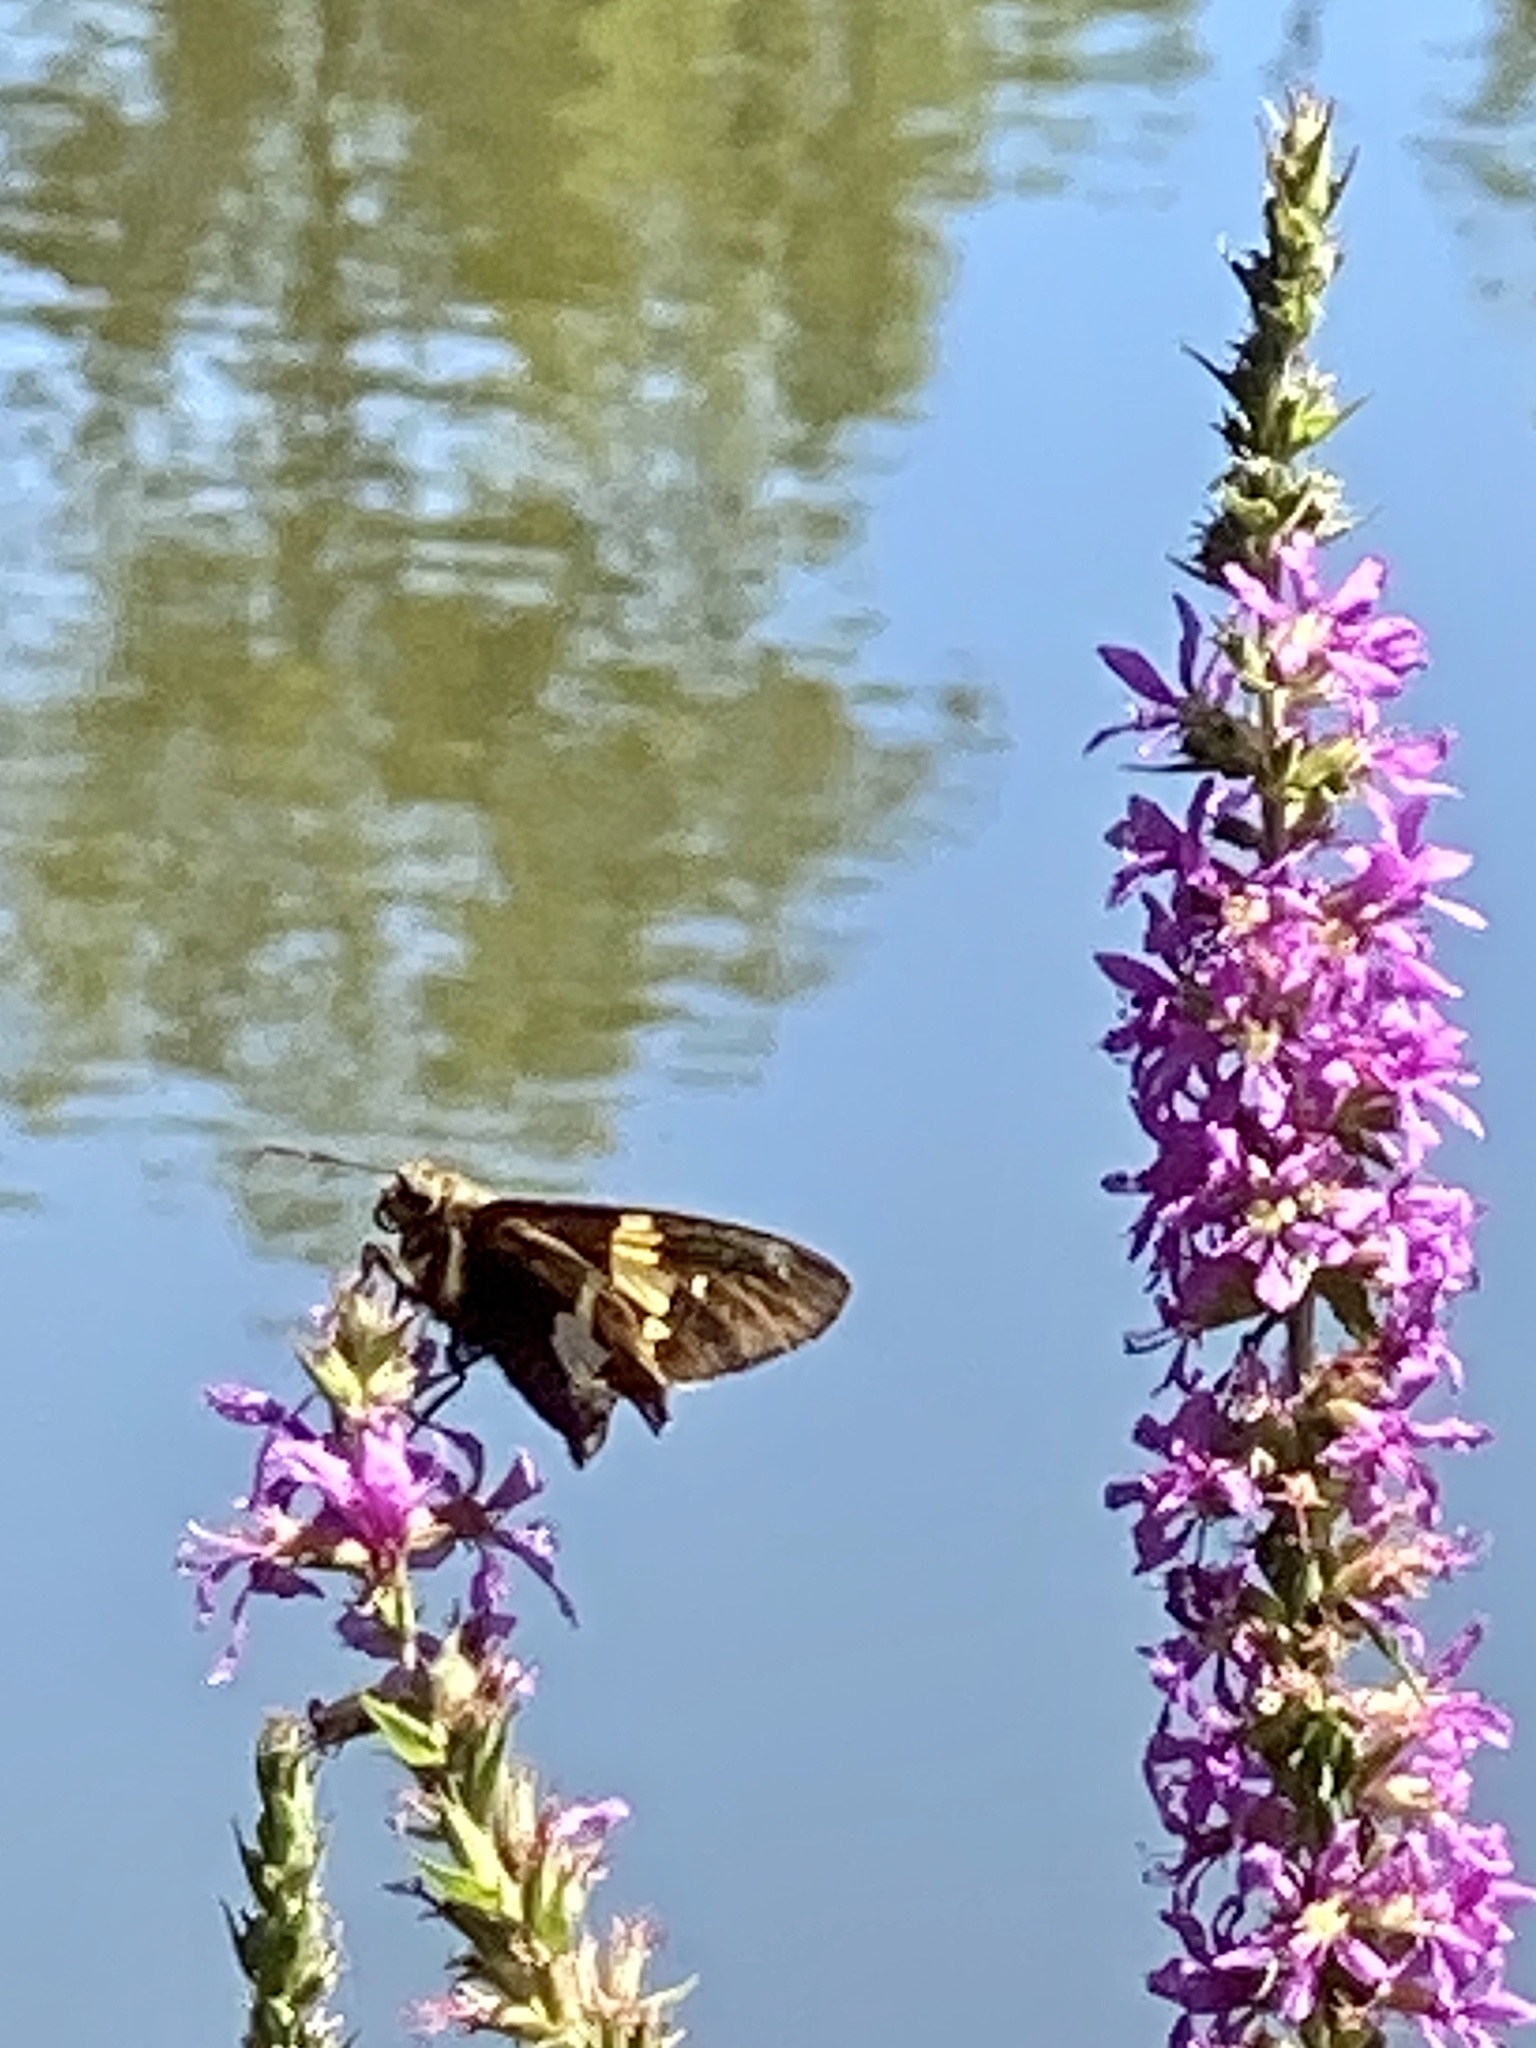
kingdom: Animalia
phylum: Arthropoda
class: Insecta
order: Lepidoptera
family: Hesperiidae
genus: Epargyreus
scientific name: Epargyreus clarus
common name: Silver-spotted skipper
